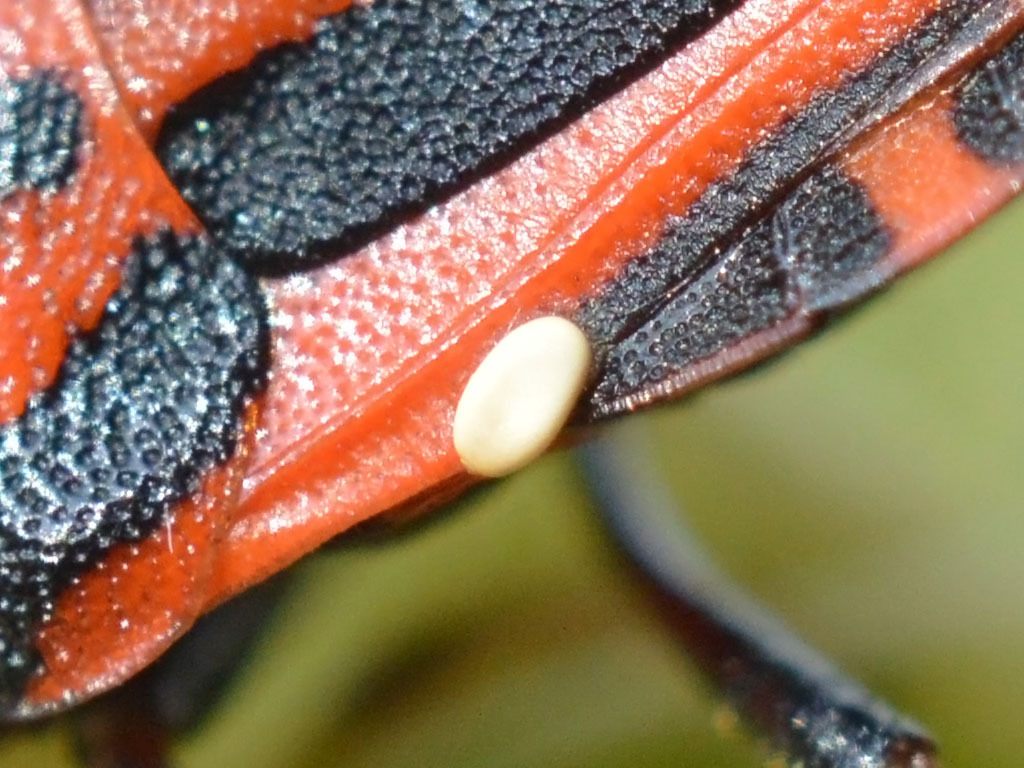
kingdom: Animalia
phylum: Arthropoda
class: Insecta
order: Hemiptera
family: Pentatomidae
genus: Graphosoma
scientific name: Graphosoma italicum
